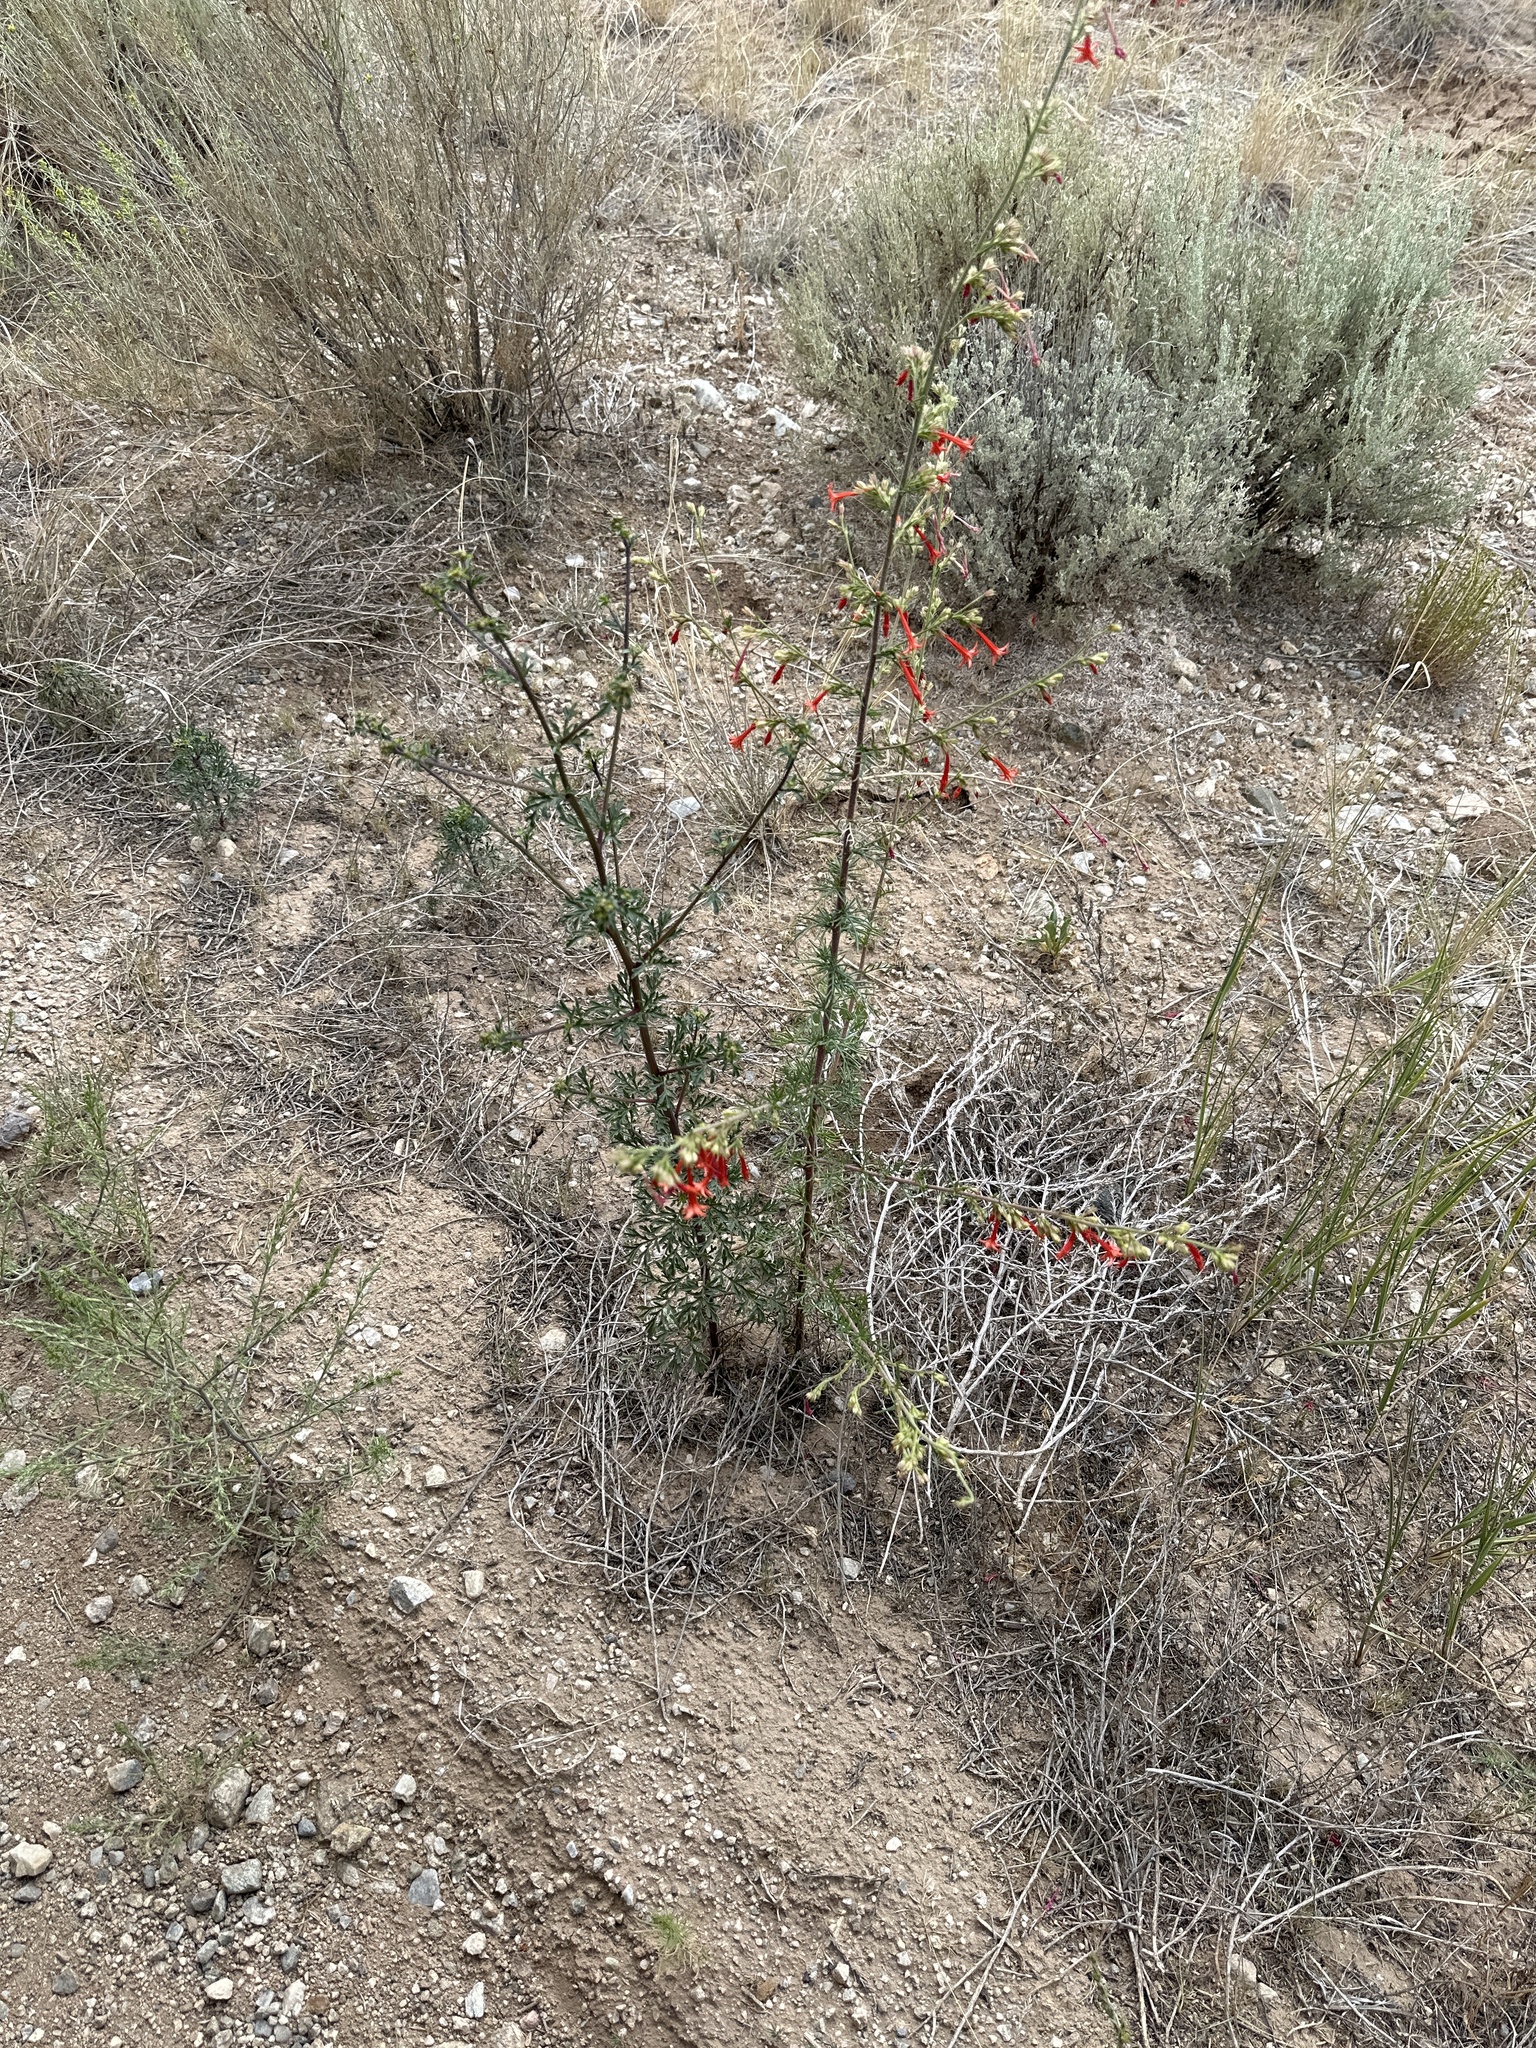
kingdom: Plantae
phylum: Tracheophyta
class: Magnoliopsida
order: Ericales
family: Polemoniaceae
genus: Ipomopsis
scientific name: Ipomopsis aggregata
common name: Scarlet gilia
